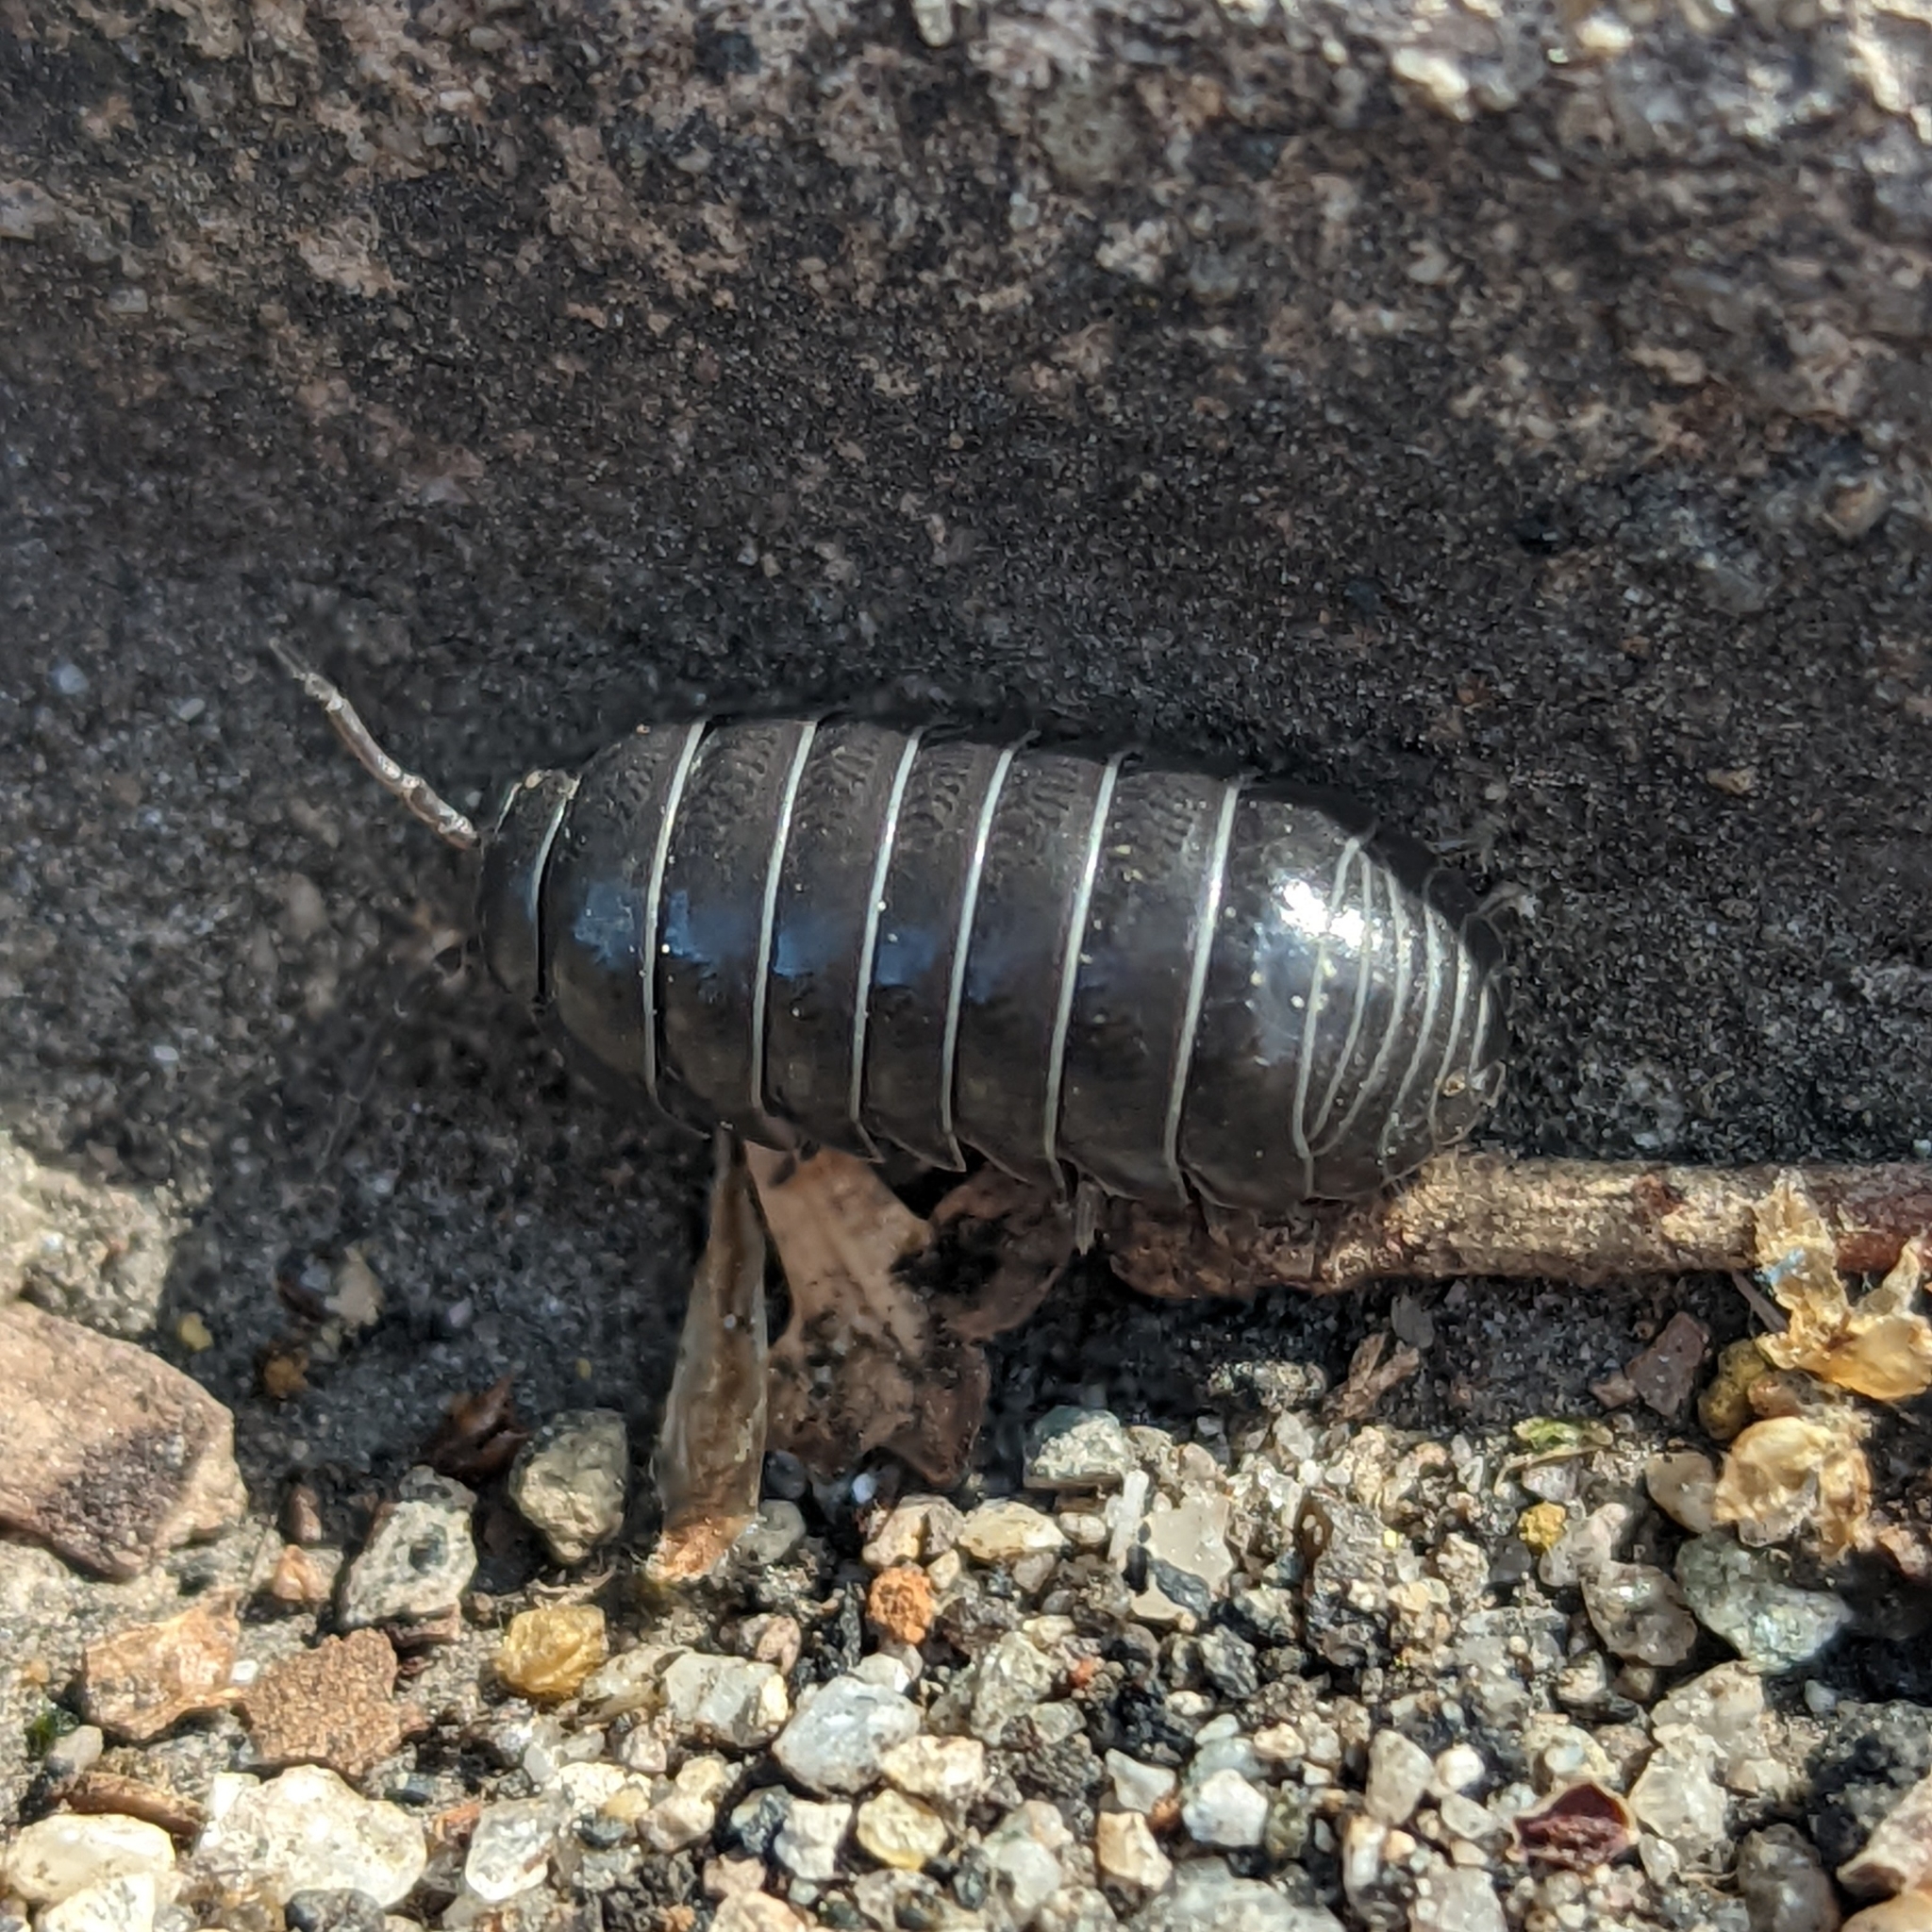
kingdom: Animalia
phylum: Arthropoda
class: Malacostraca
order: Isopoda
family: Armadillidiidae
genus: Armadillidium
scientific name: Armadillidium vulgare
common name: Common pill woodlouse
